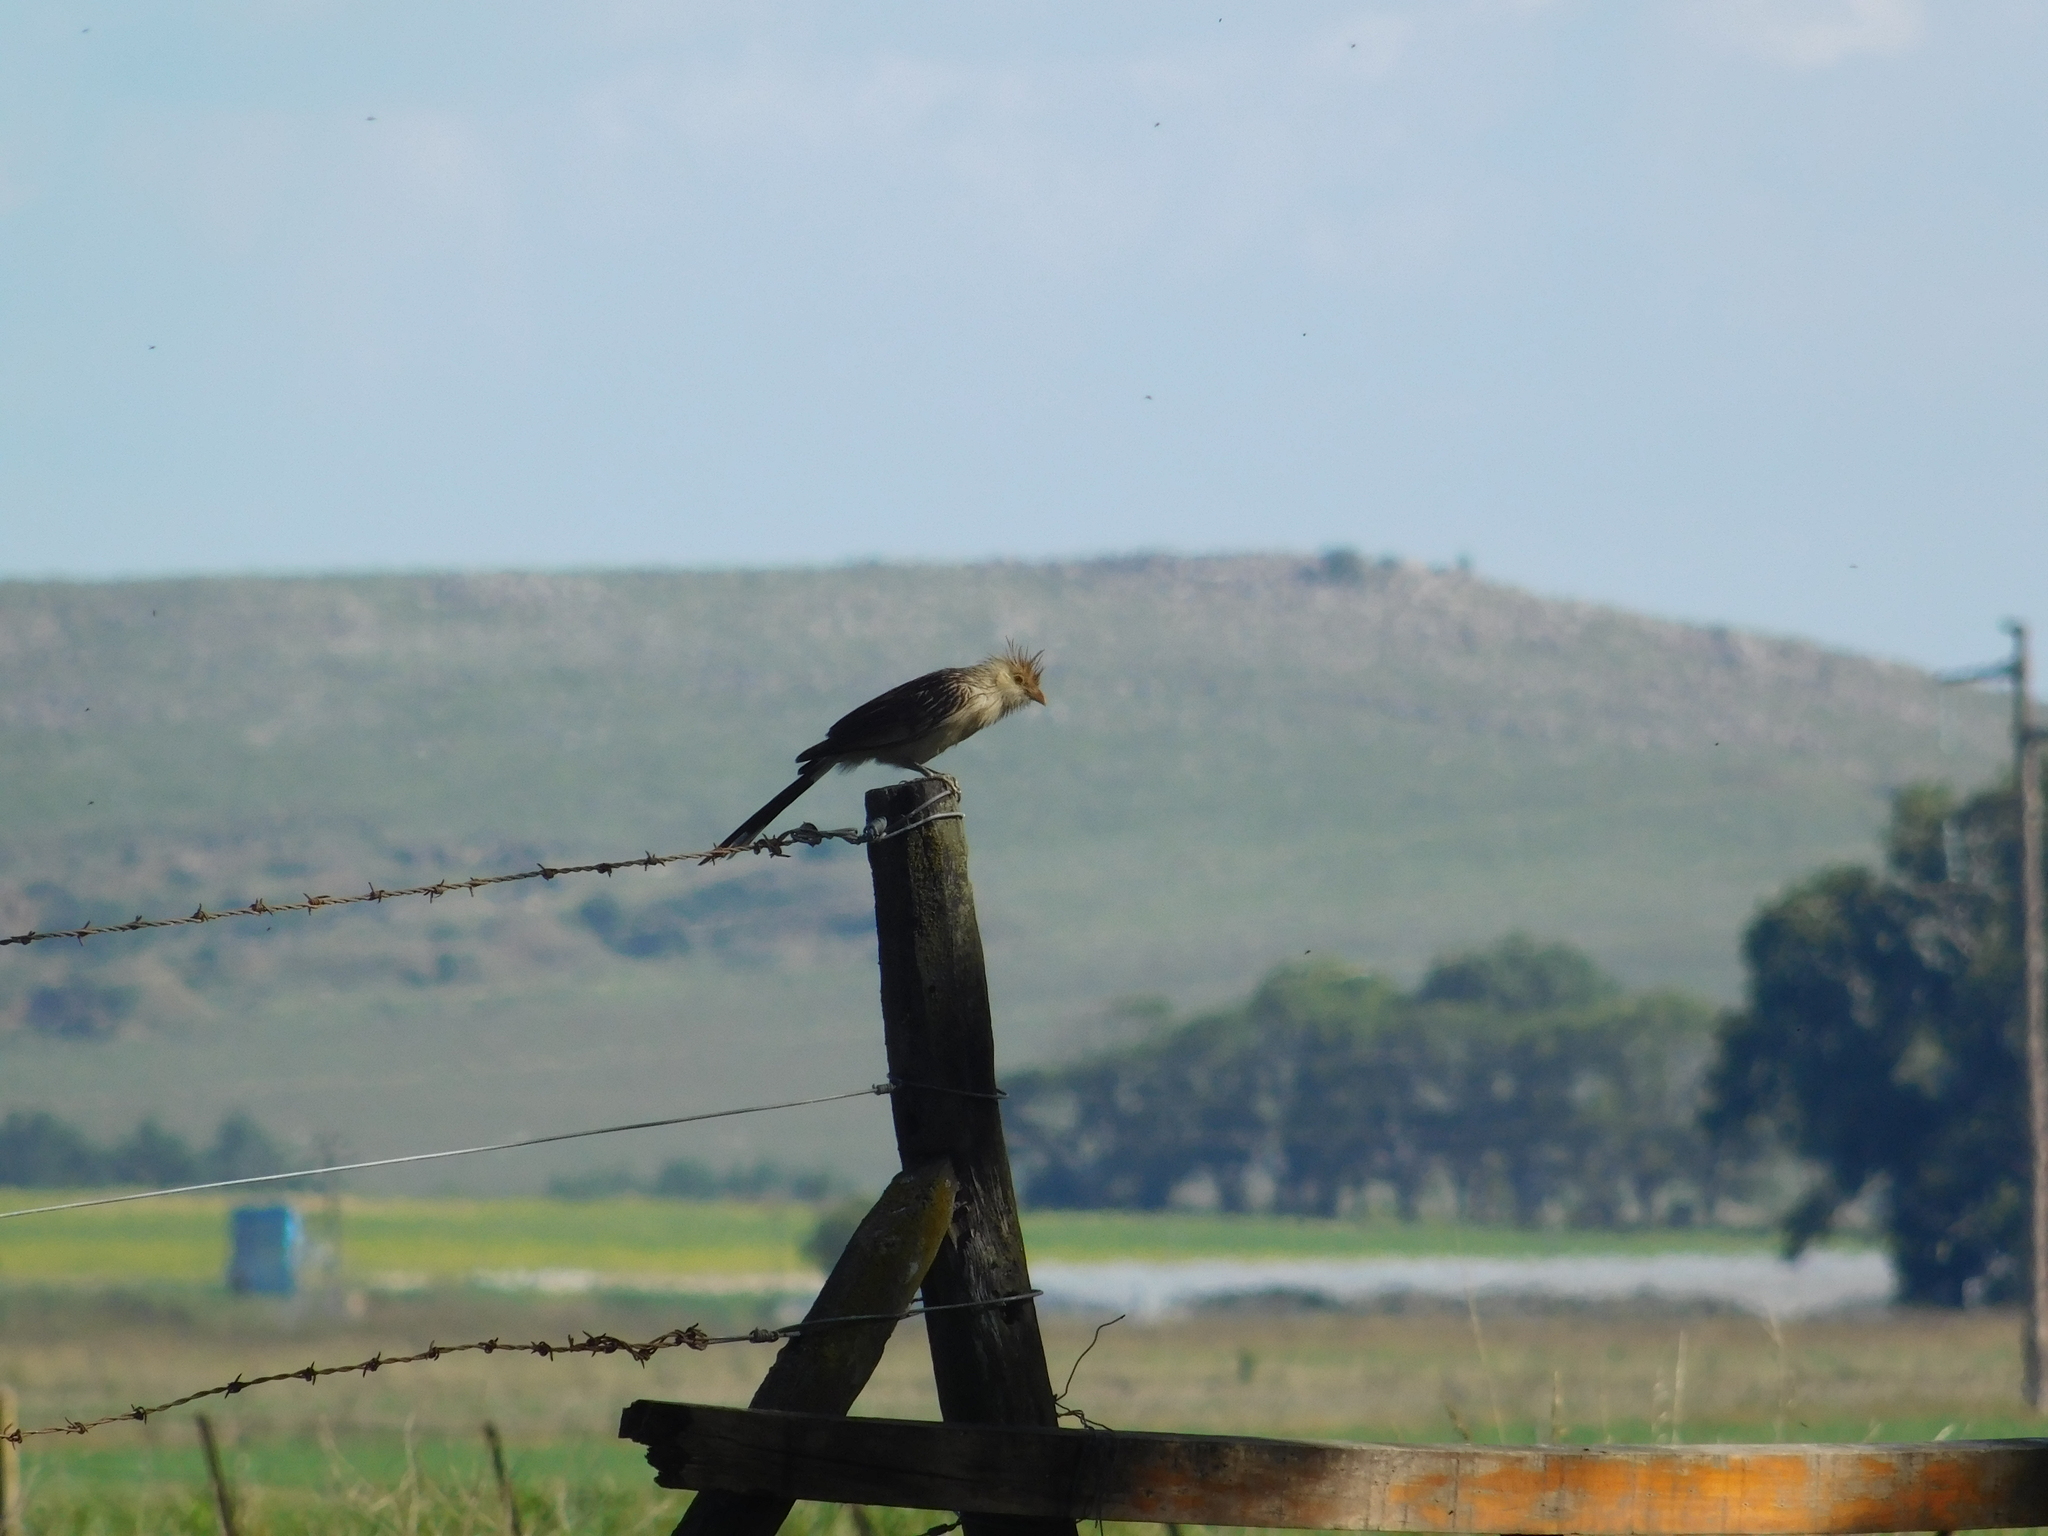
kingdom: Animalia
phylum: Chordata
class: Aves
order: Cuculiformes
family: Cuculidae
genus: Guira
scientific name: Guira guira
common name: Guira cuckoo
